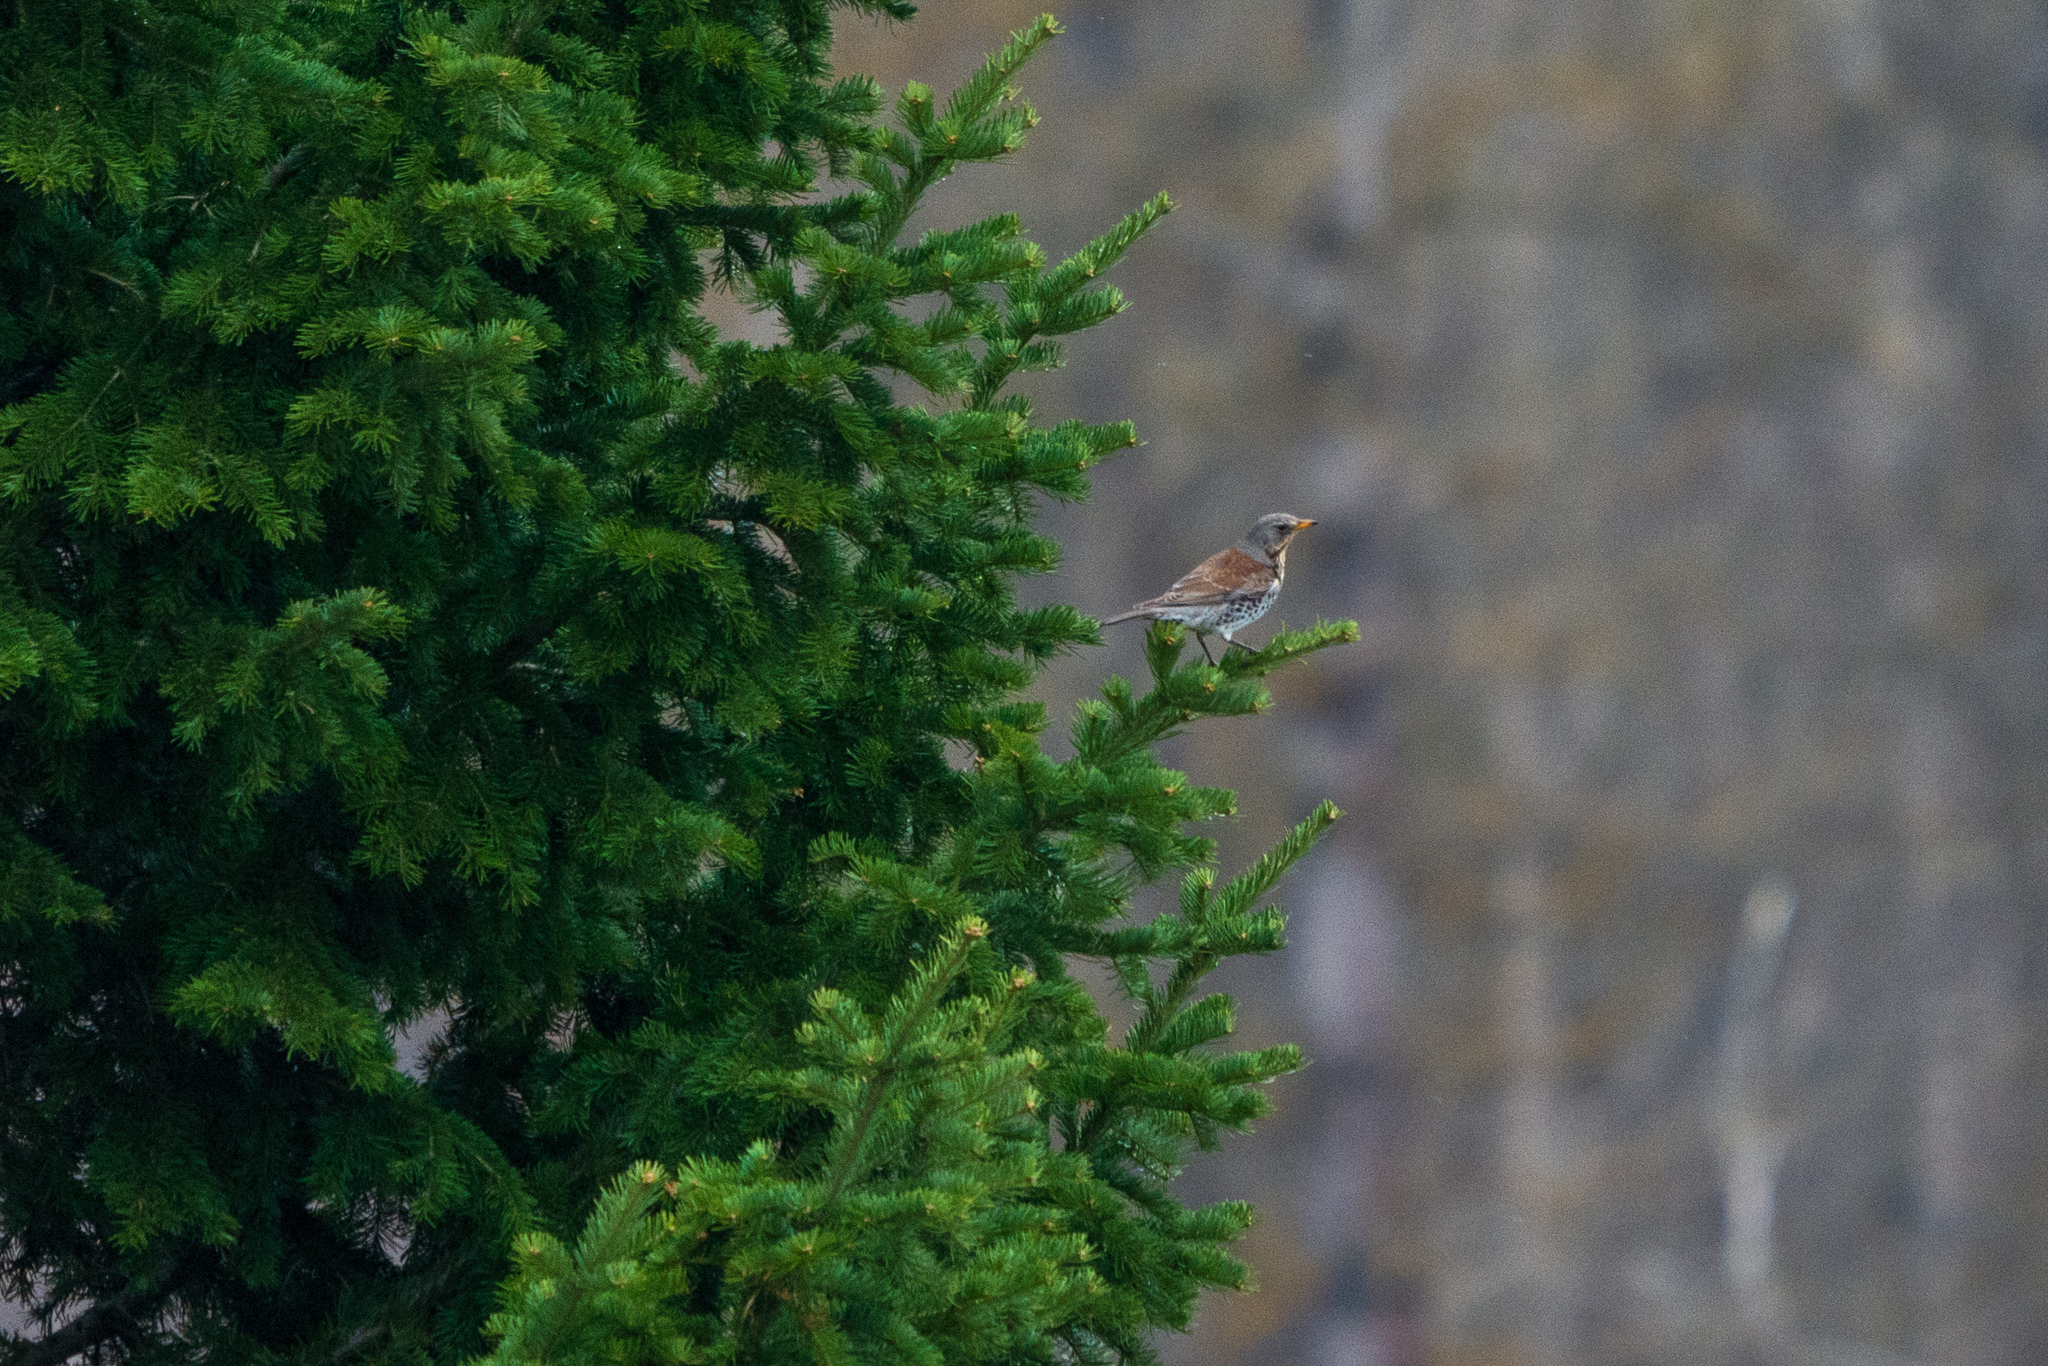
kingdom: Animalia
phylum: Chordata
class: Aves
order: Passeriformes
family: Turdidae
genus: Turdus
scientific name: Turdus pilaris
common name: Fieldfare
